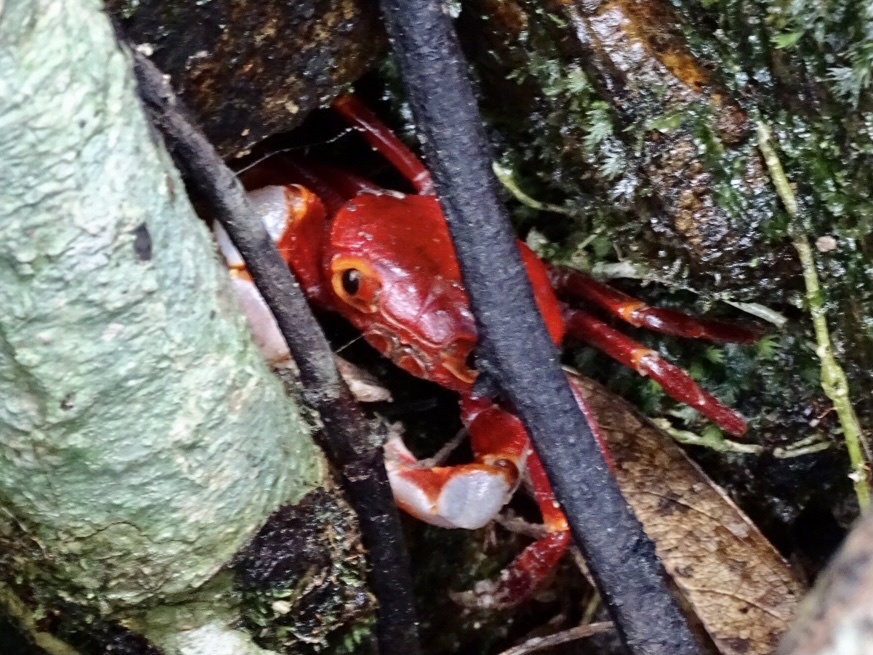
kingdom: Animalia
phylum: Arthropoda
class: Malacostraca
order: Decapoda
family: Potamidae
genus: Nanhaipotamon
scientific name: Nanhaipotamon hongkongense
